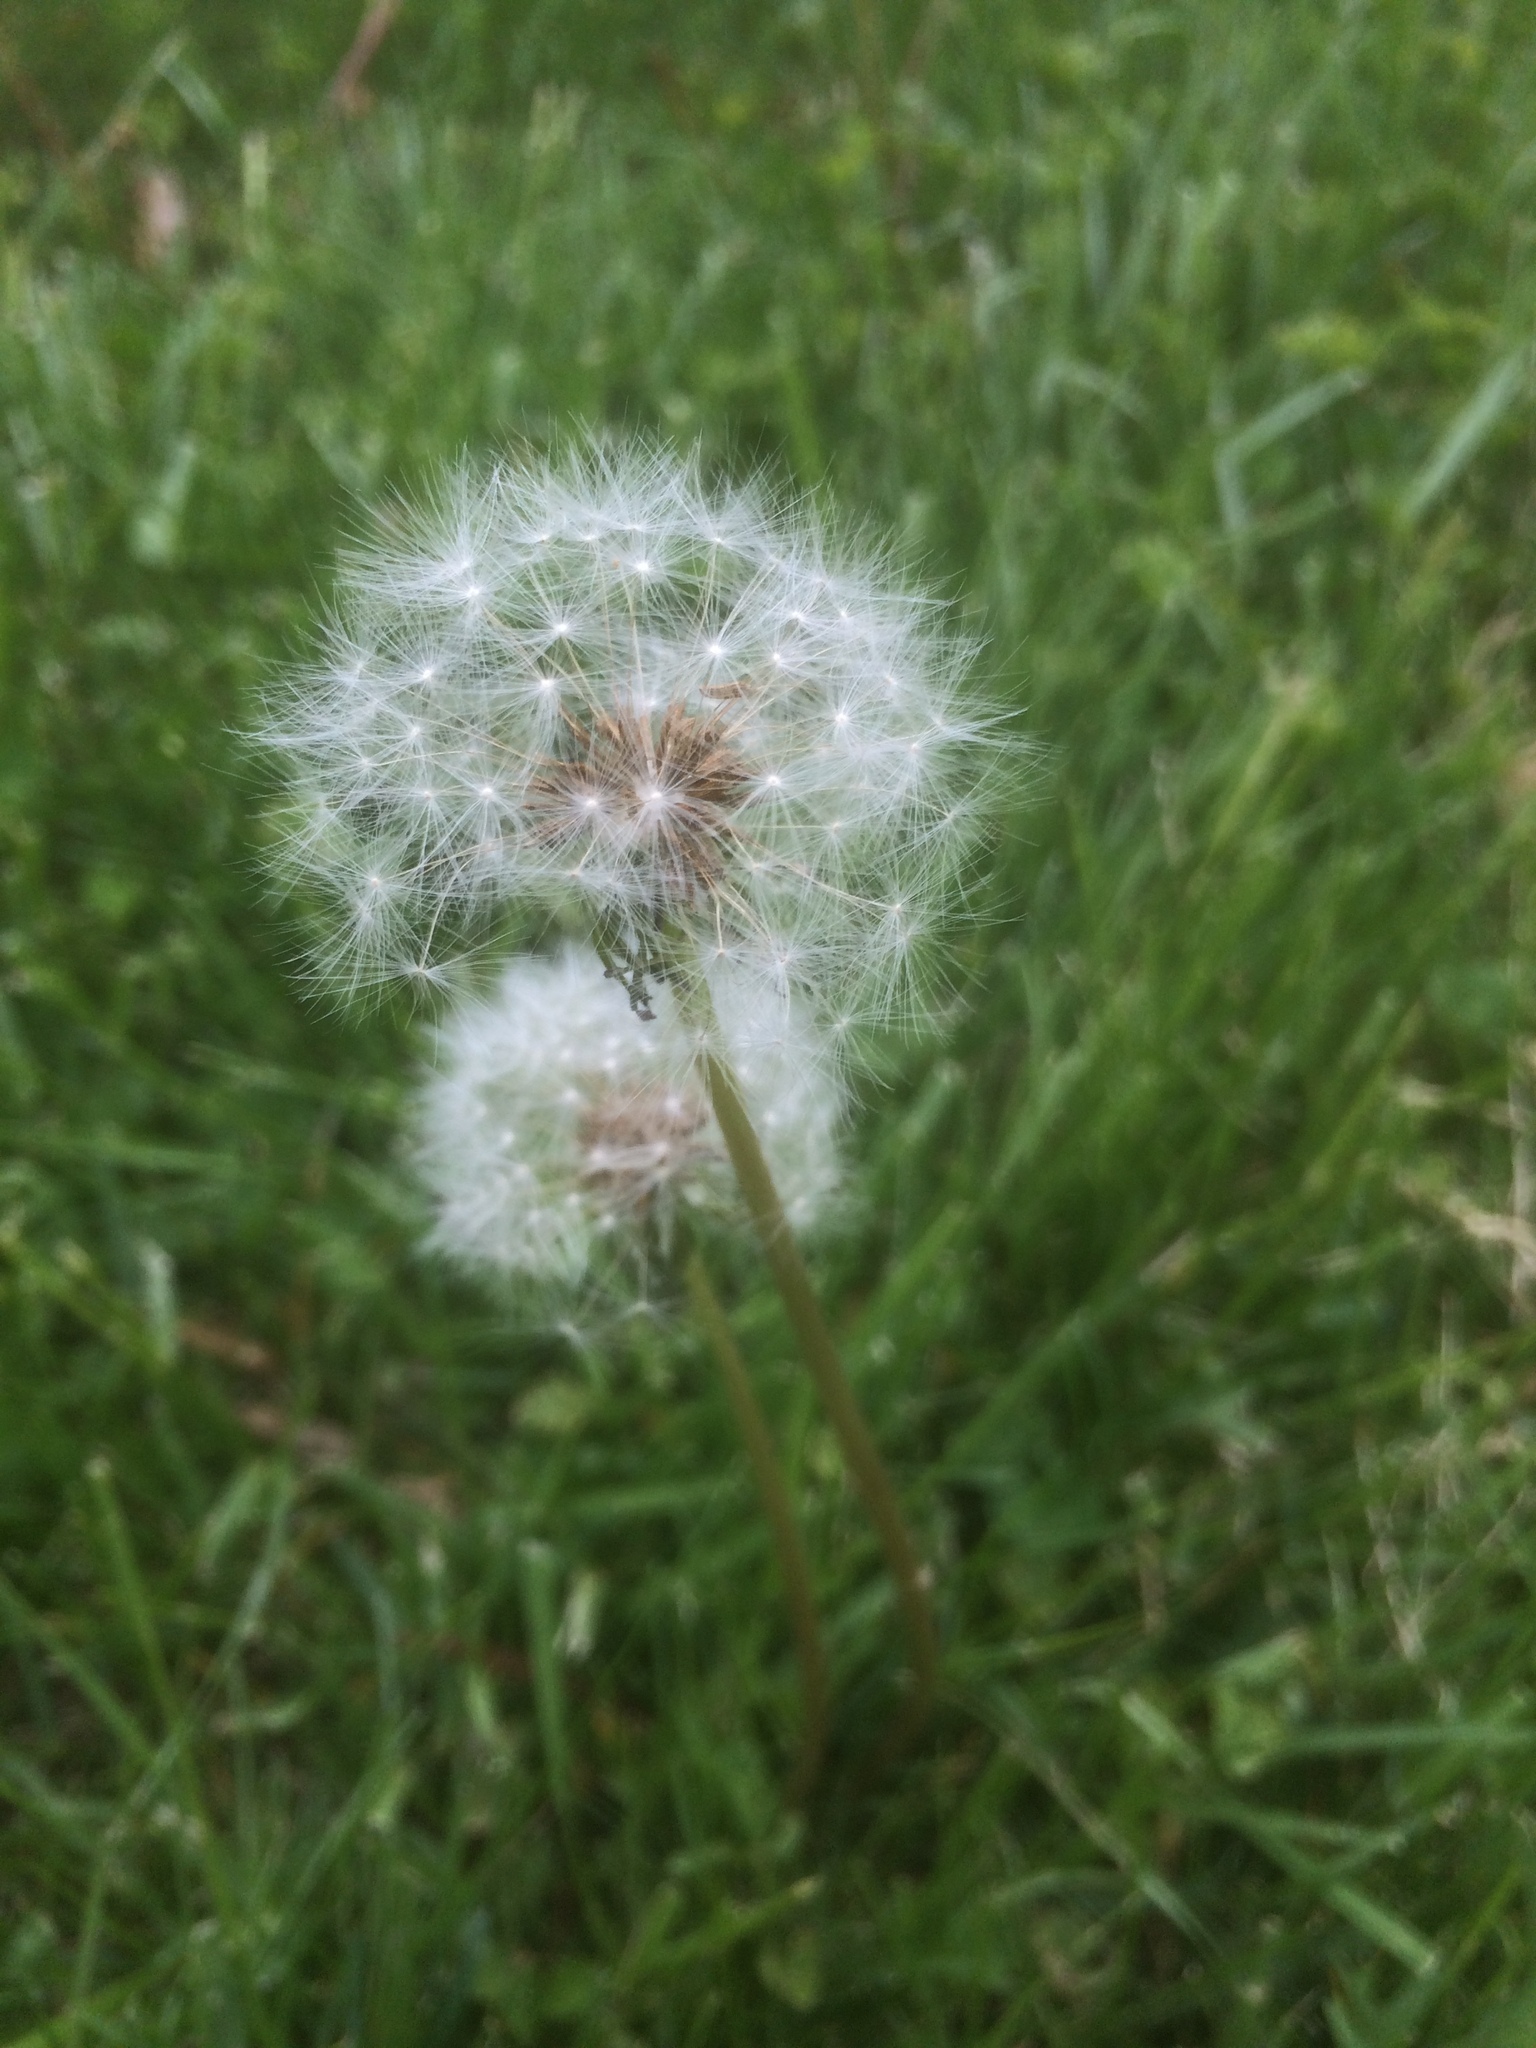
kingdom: Plantae
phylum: Tracheophyta
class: Magnoliopsida
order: Asterales
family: Asteraceae
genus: Taraxacum
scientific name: Taraxacum officinale
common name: Common dandelion
